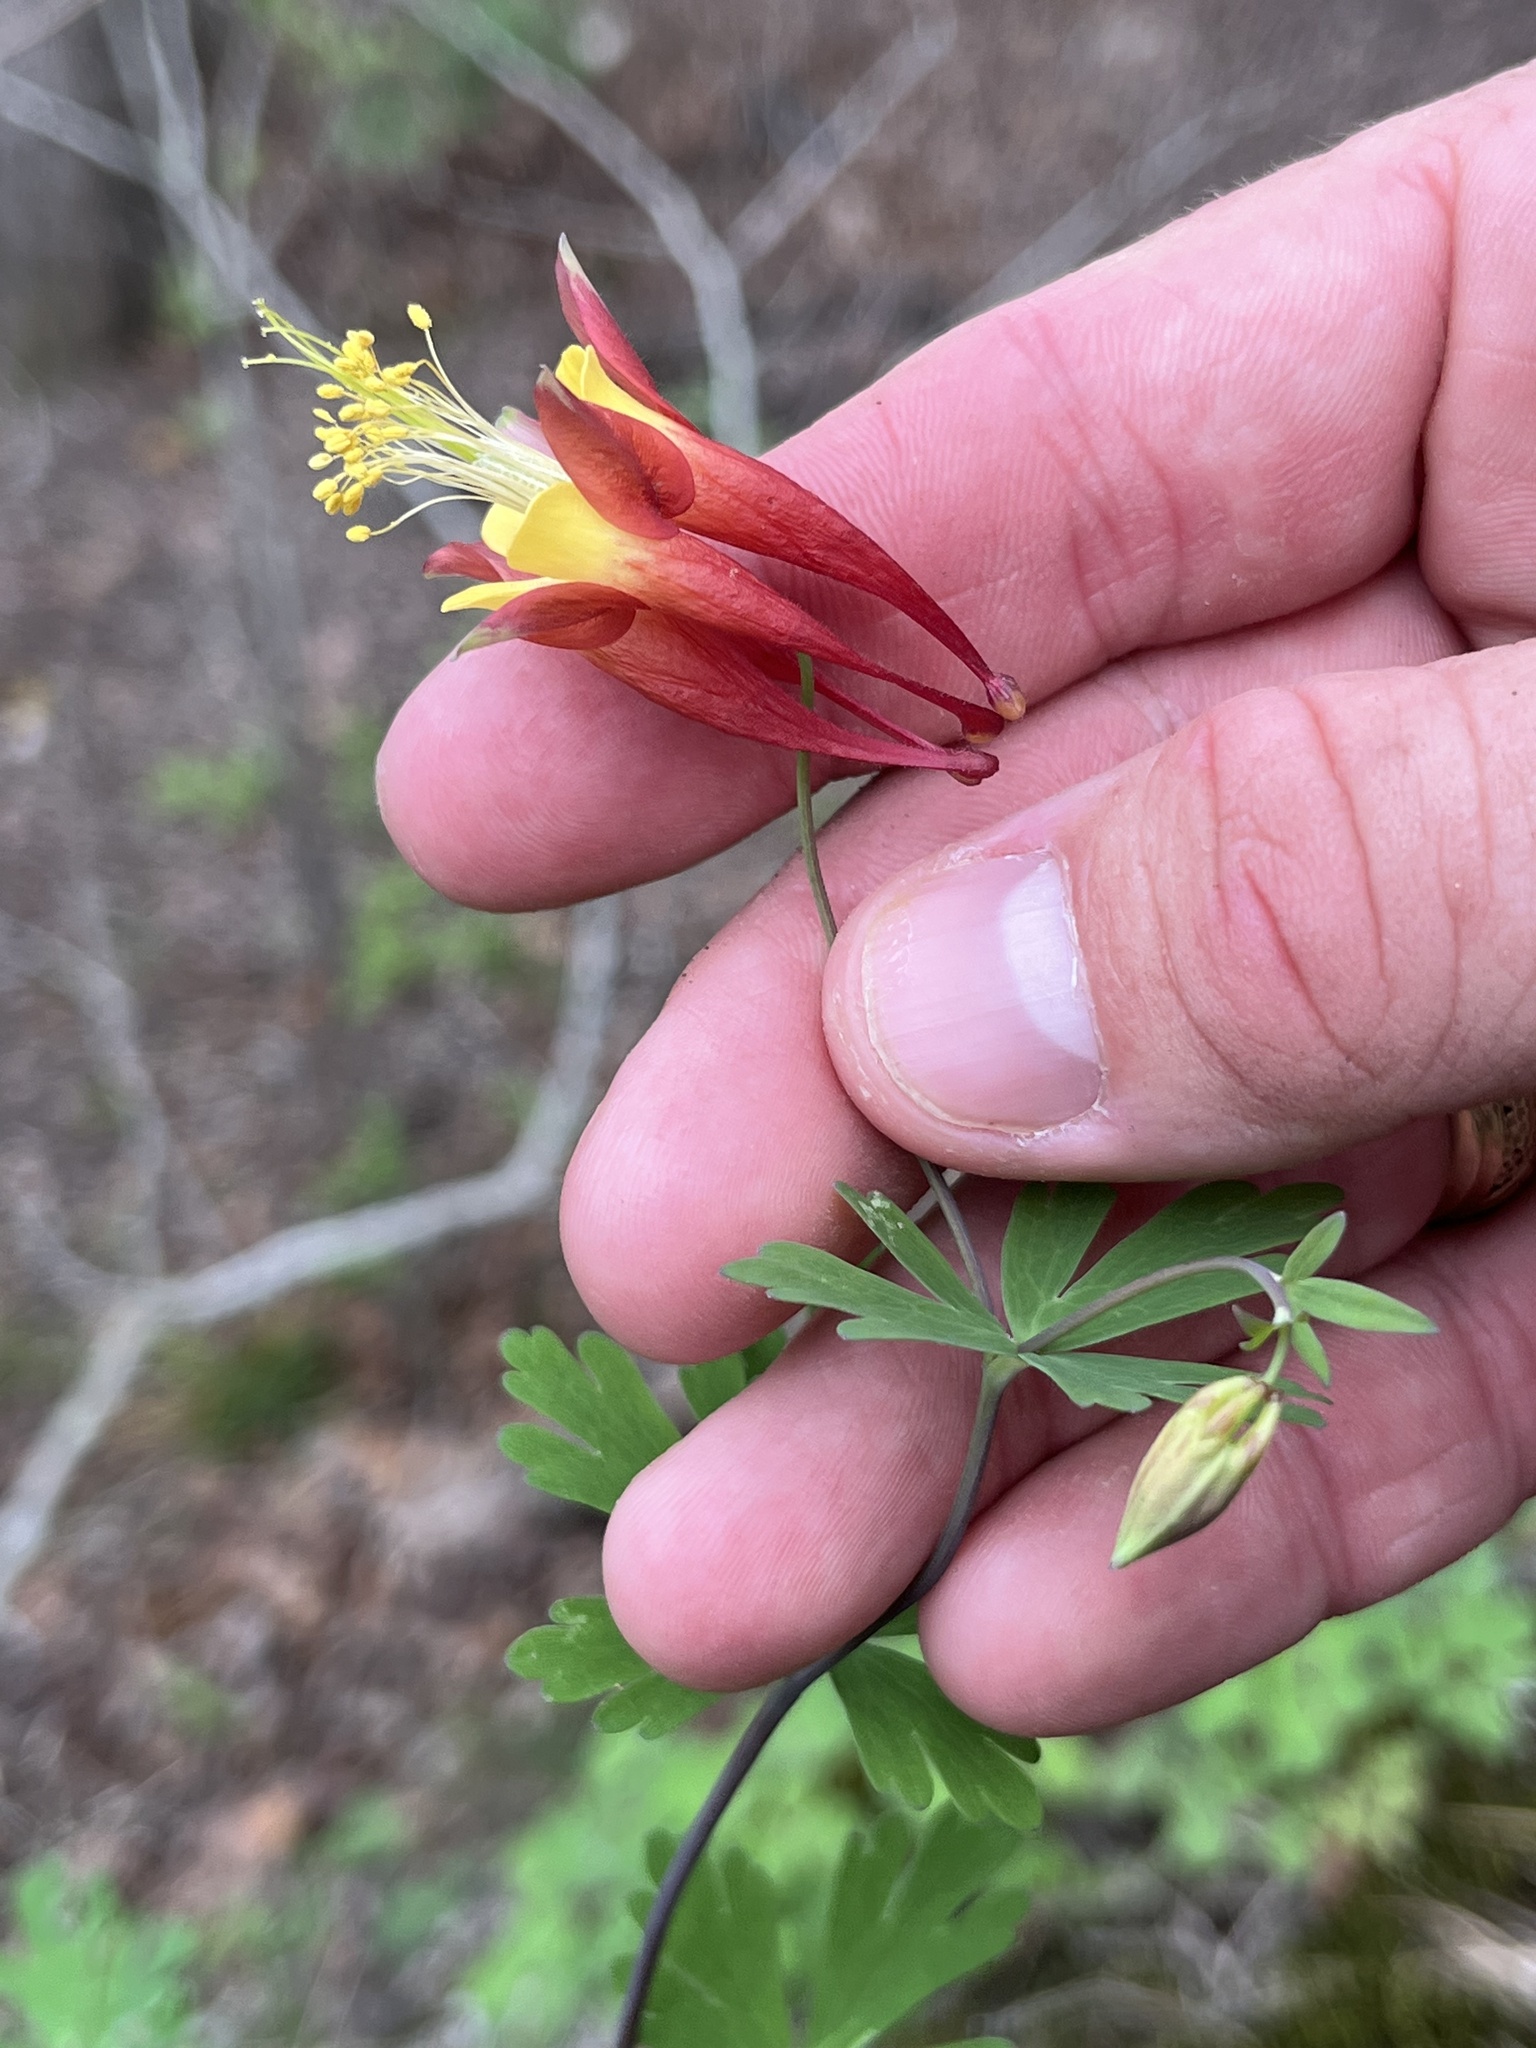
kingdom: Plantae
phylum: Tracheophyta
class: Magnoliopsida
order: Ranunculales
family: Ranunculaceae
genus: Aquilegia
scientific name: Aquilegia canadensis
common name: American columbine
